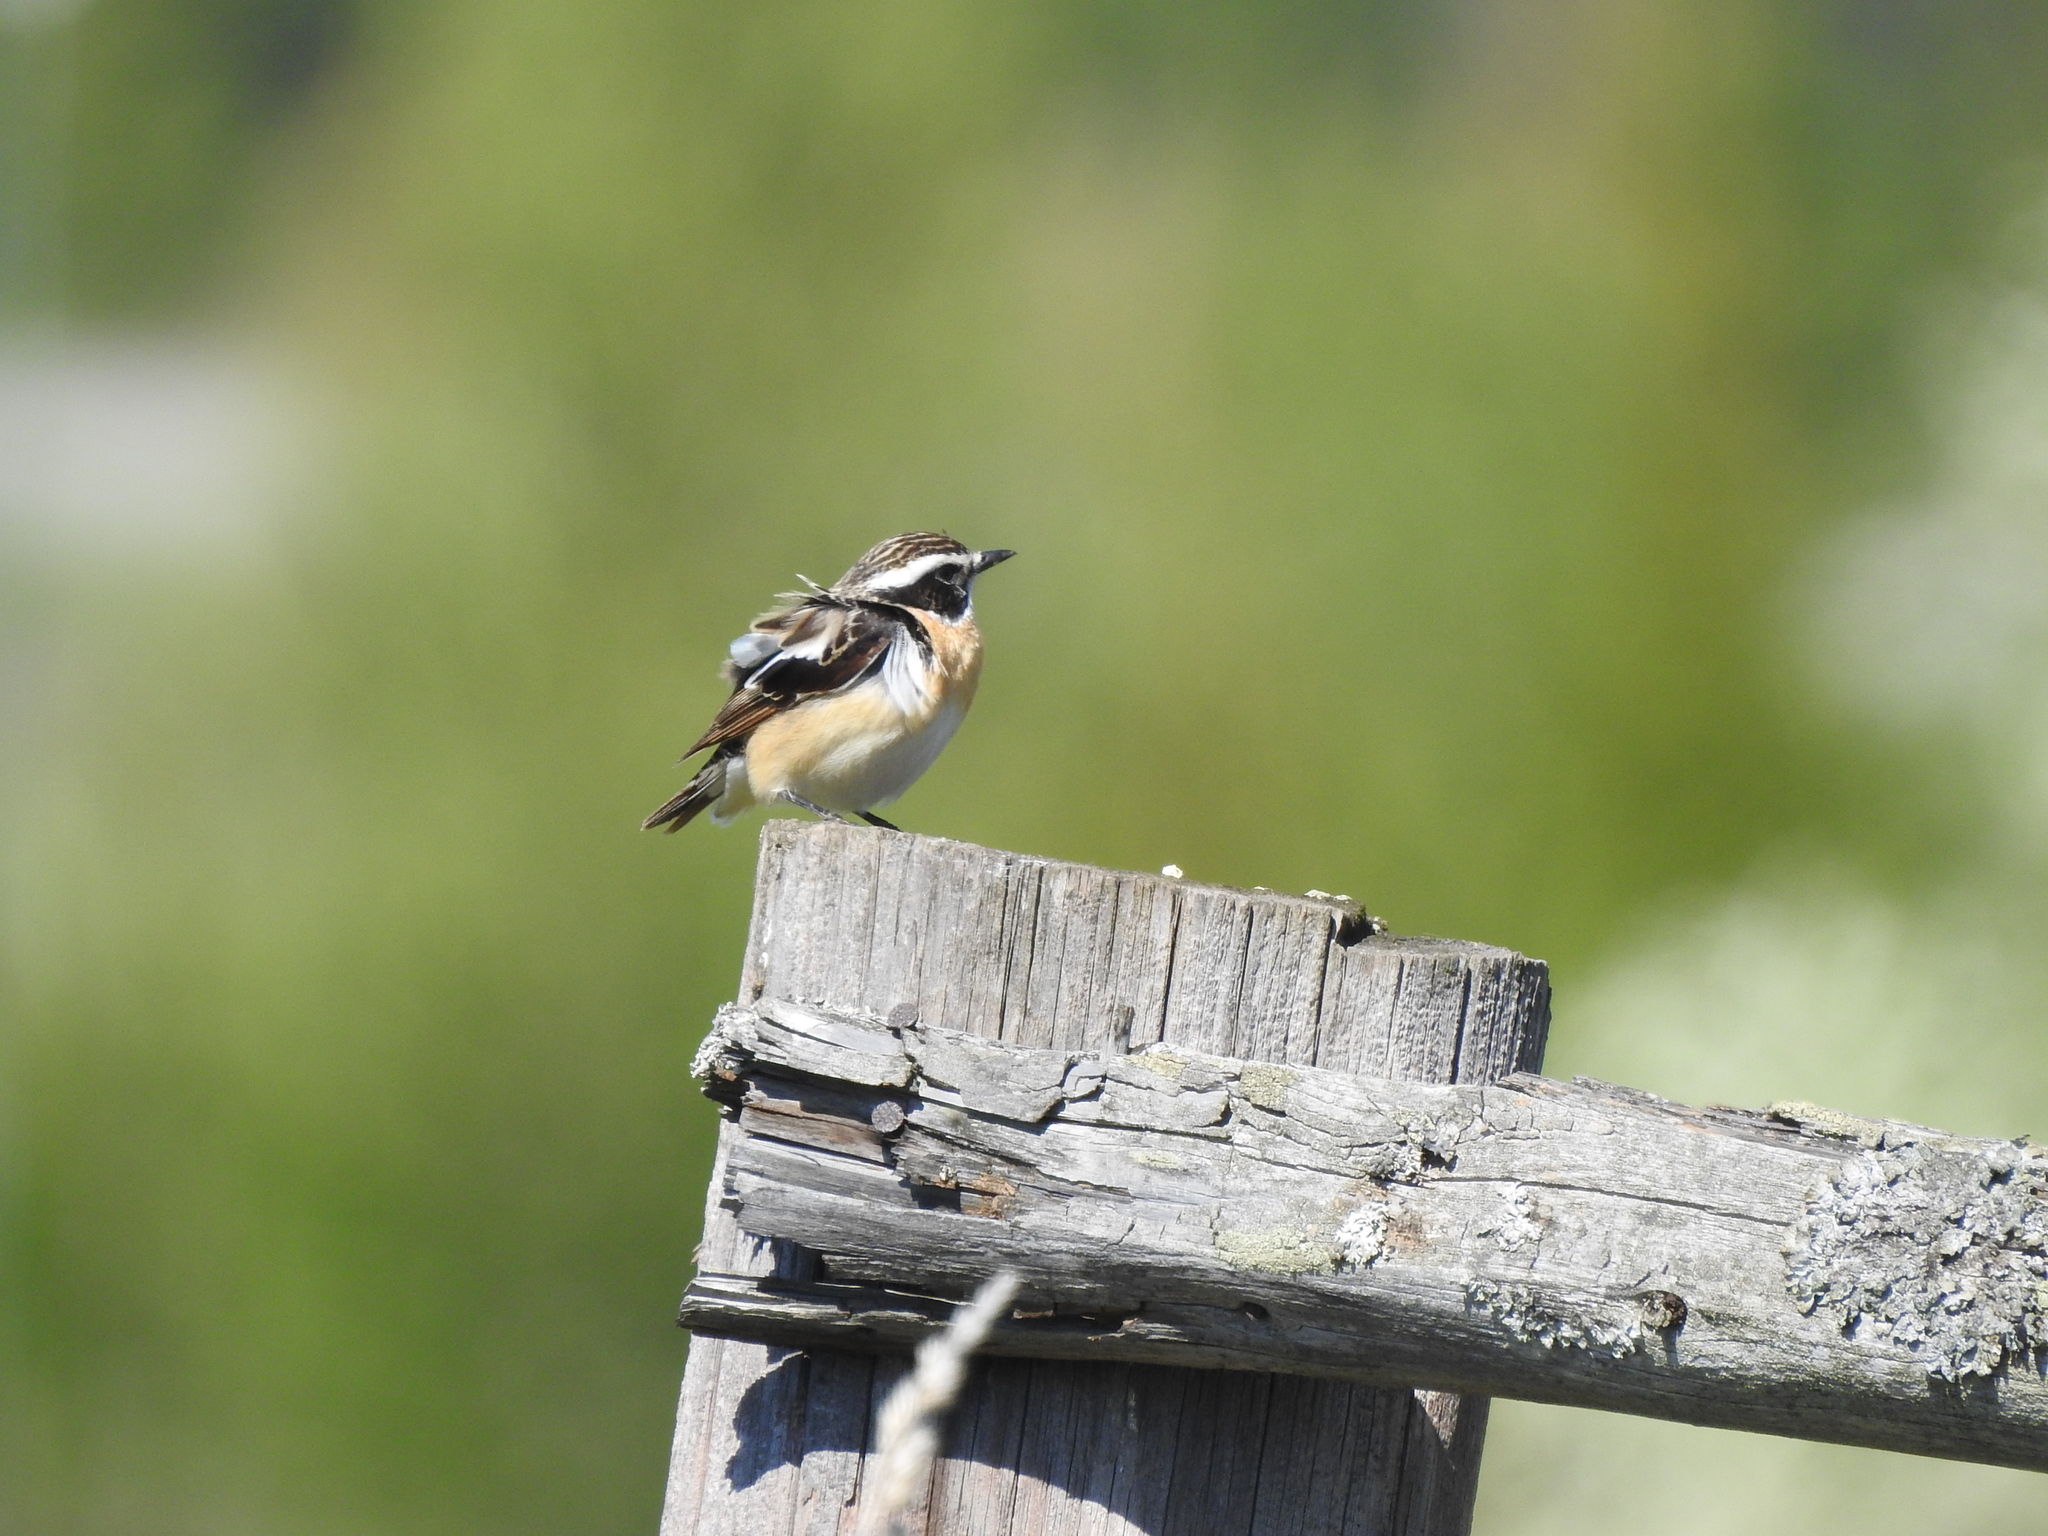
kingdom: Animalia
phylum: Chordata
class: Aves
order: Passeriformes
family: Muscicapidae
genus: Saxicola
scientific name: Saxicola rubetra
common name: Whinchat
